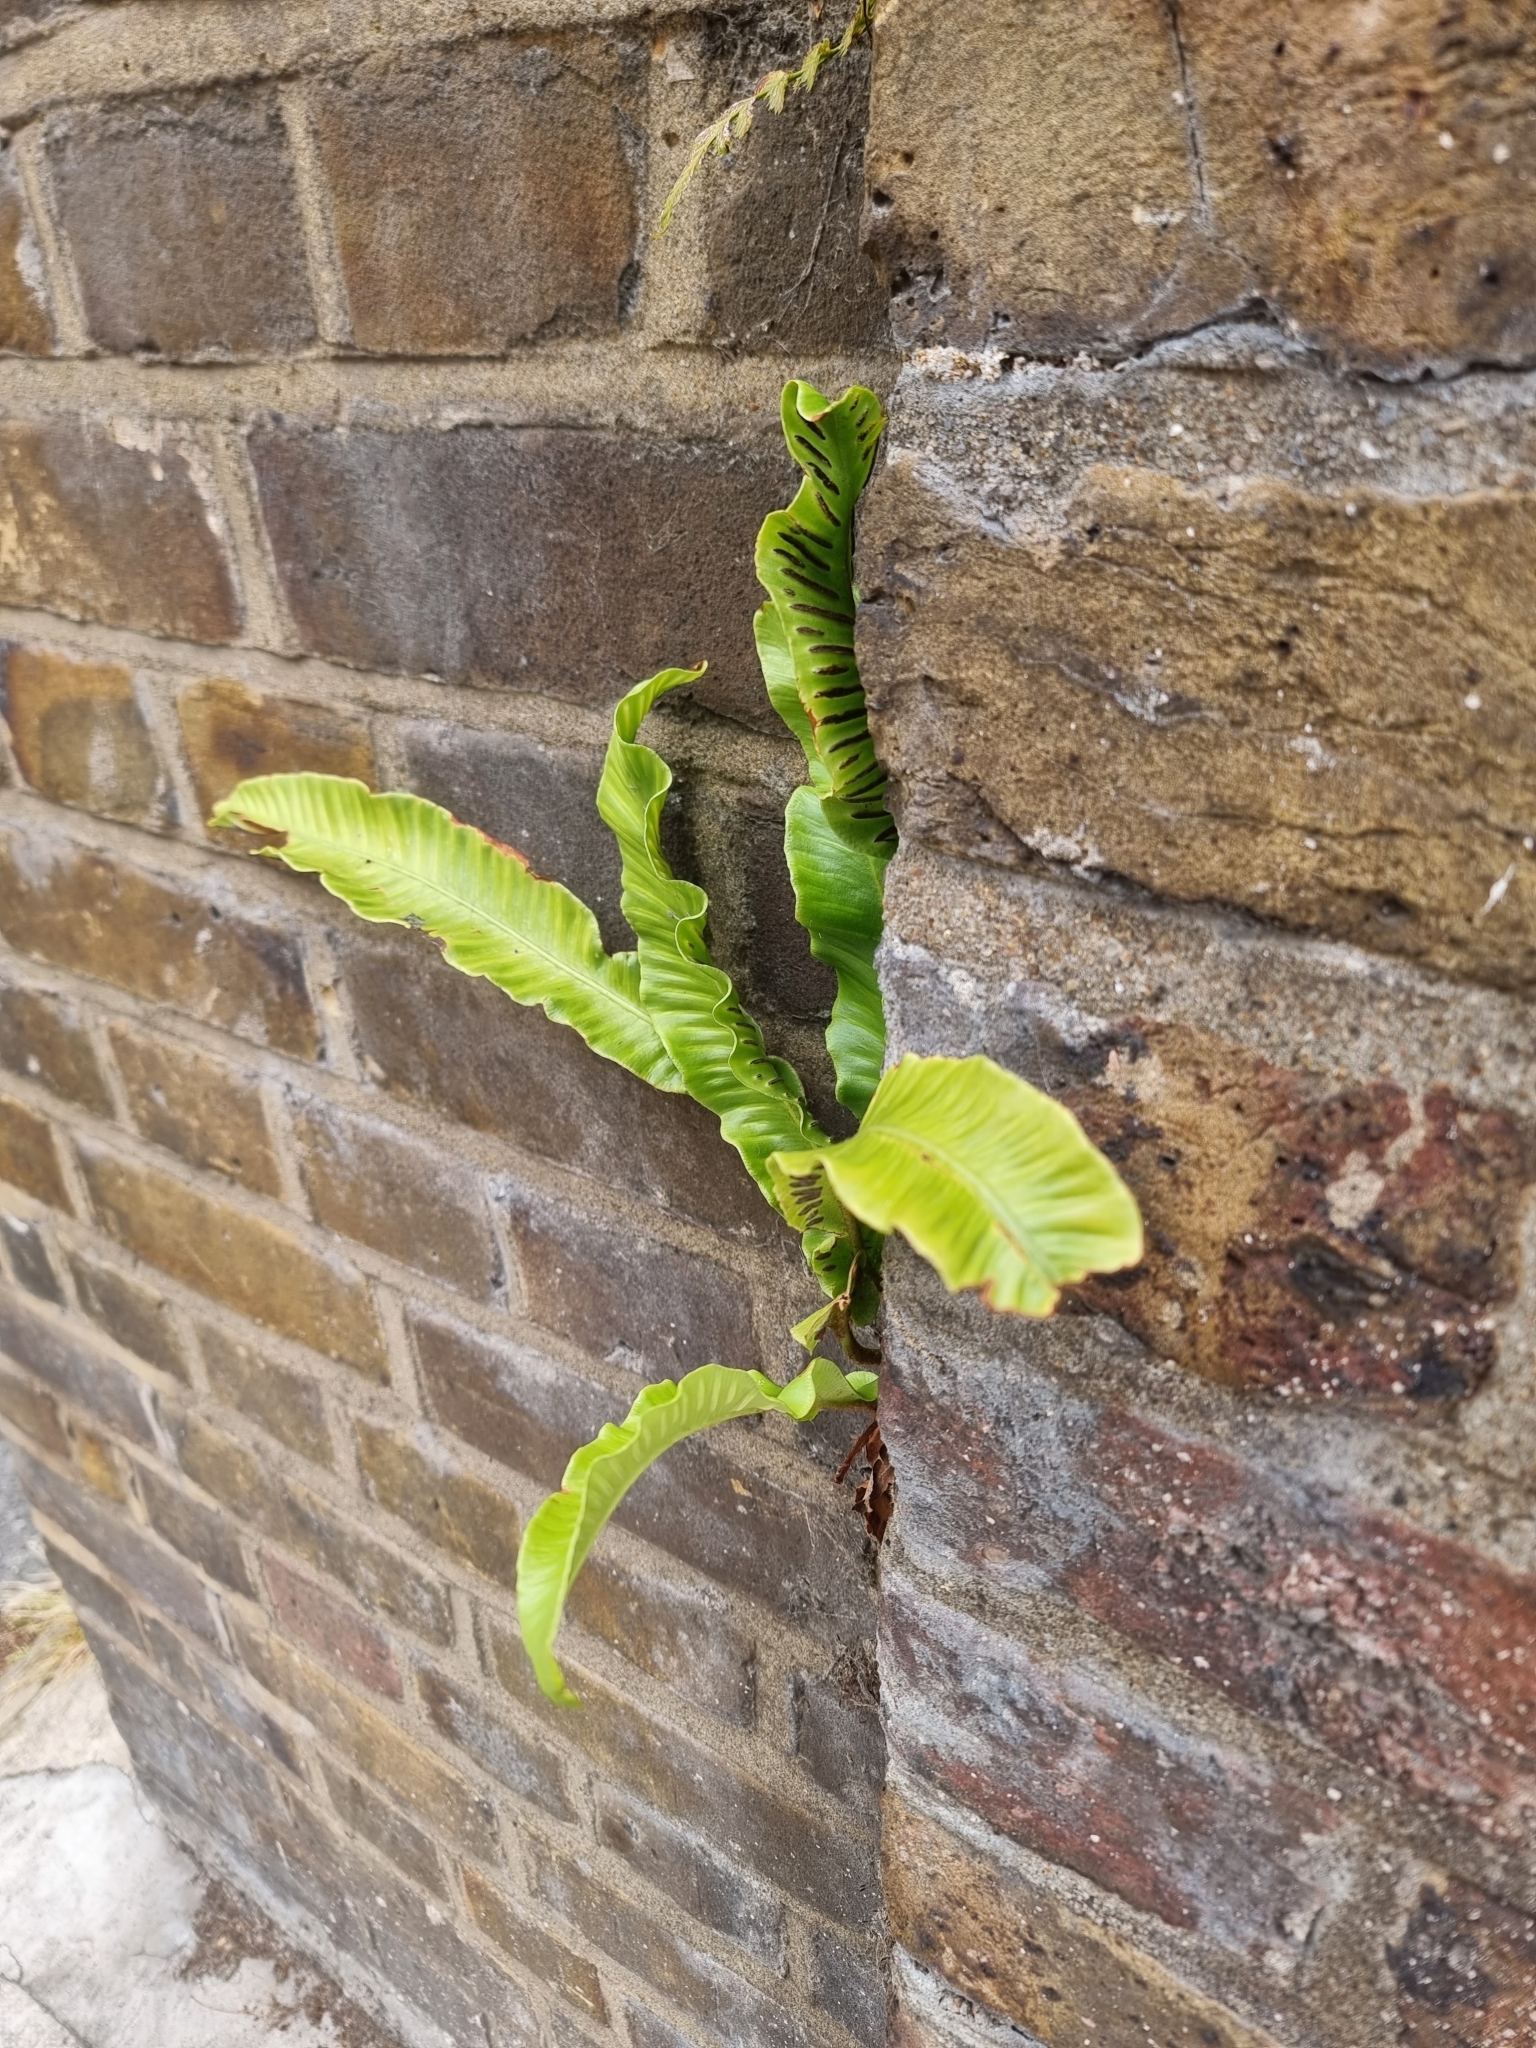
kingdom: Plantae
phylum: Tracheophyta
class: Polypodiopsida
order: Polypodiales
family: Aspleniaceae
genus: Asplenium
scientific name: Asplenium scolopendrium
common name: Hart's-tongue fern
